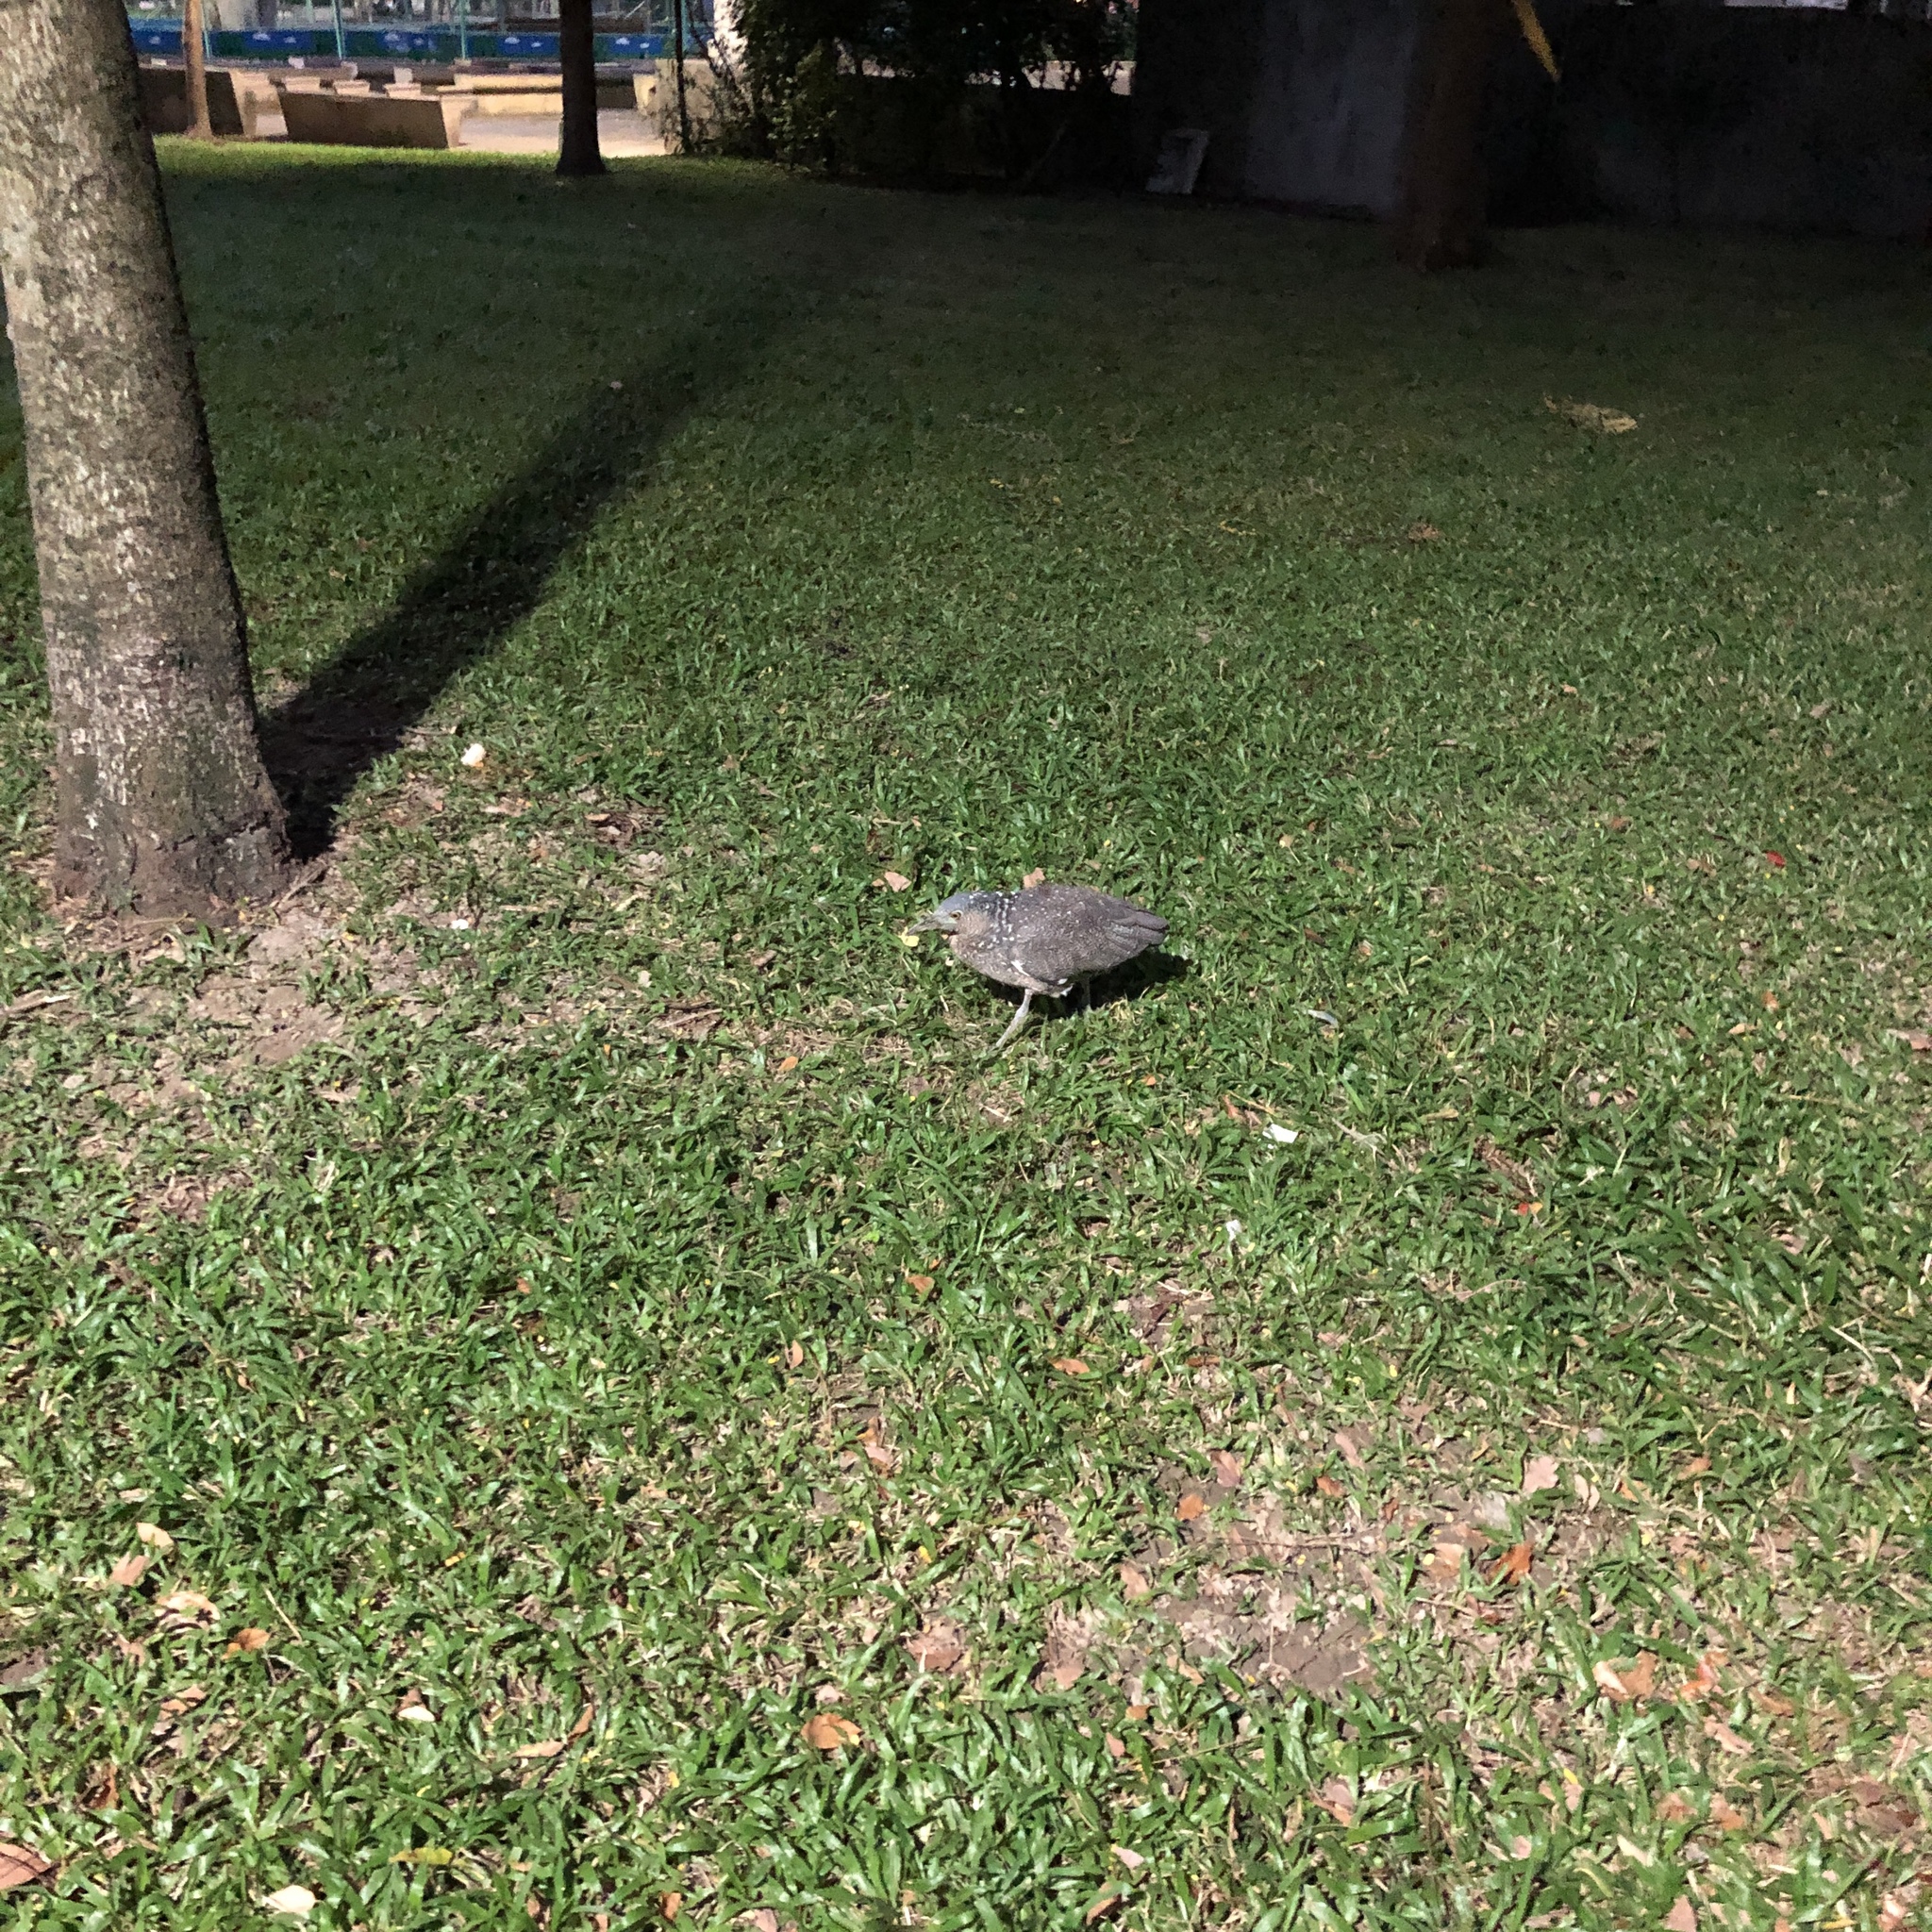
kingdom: Animalia
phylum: Chordata
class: Aves
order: Pelecaniformes
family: Ardeidae
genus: Gorsachius
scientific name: Gorsachius melanolophus
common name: Malayan night heron
